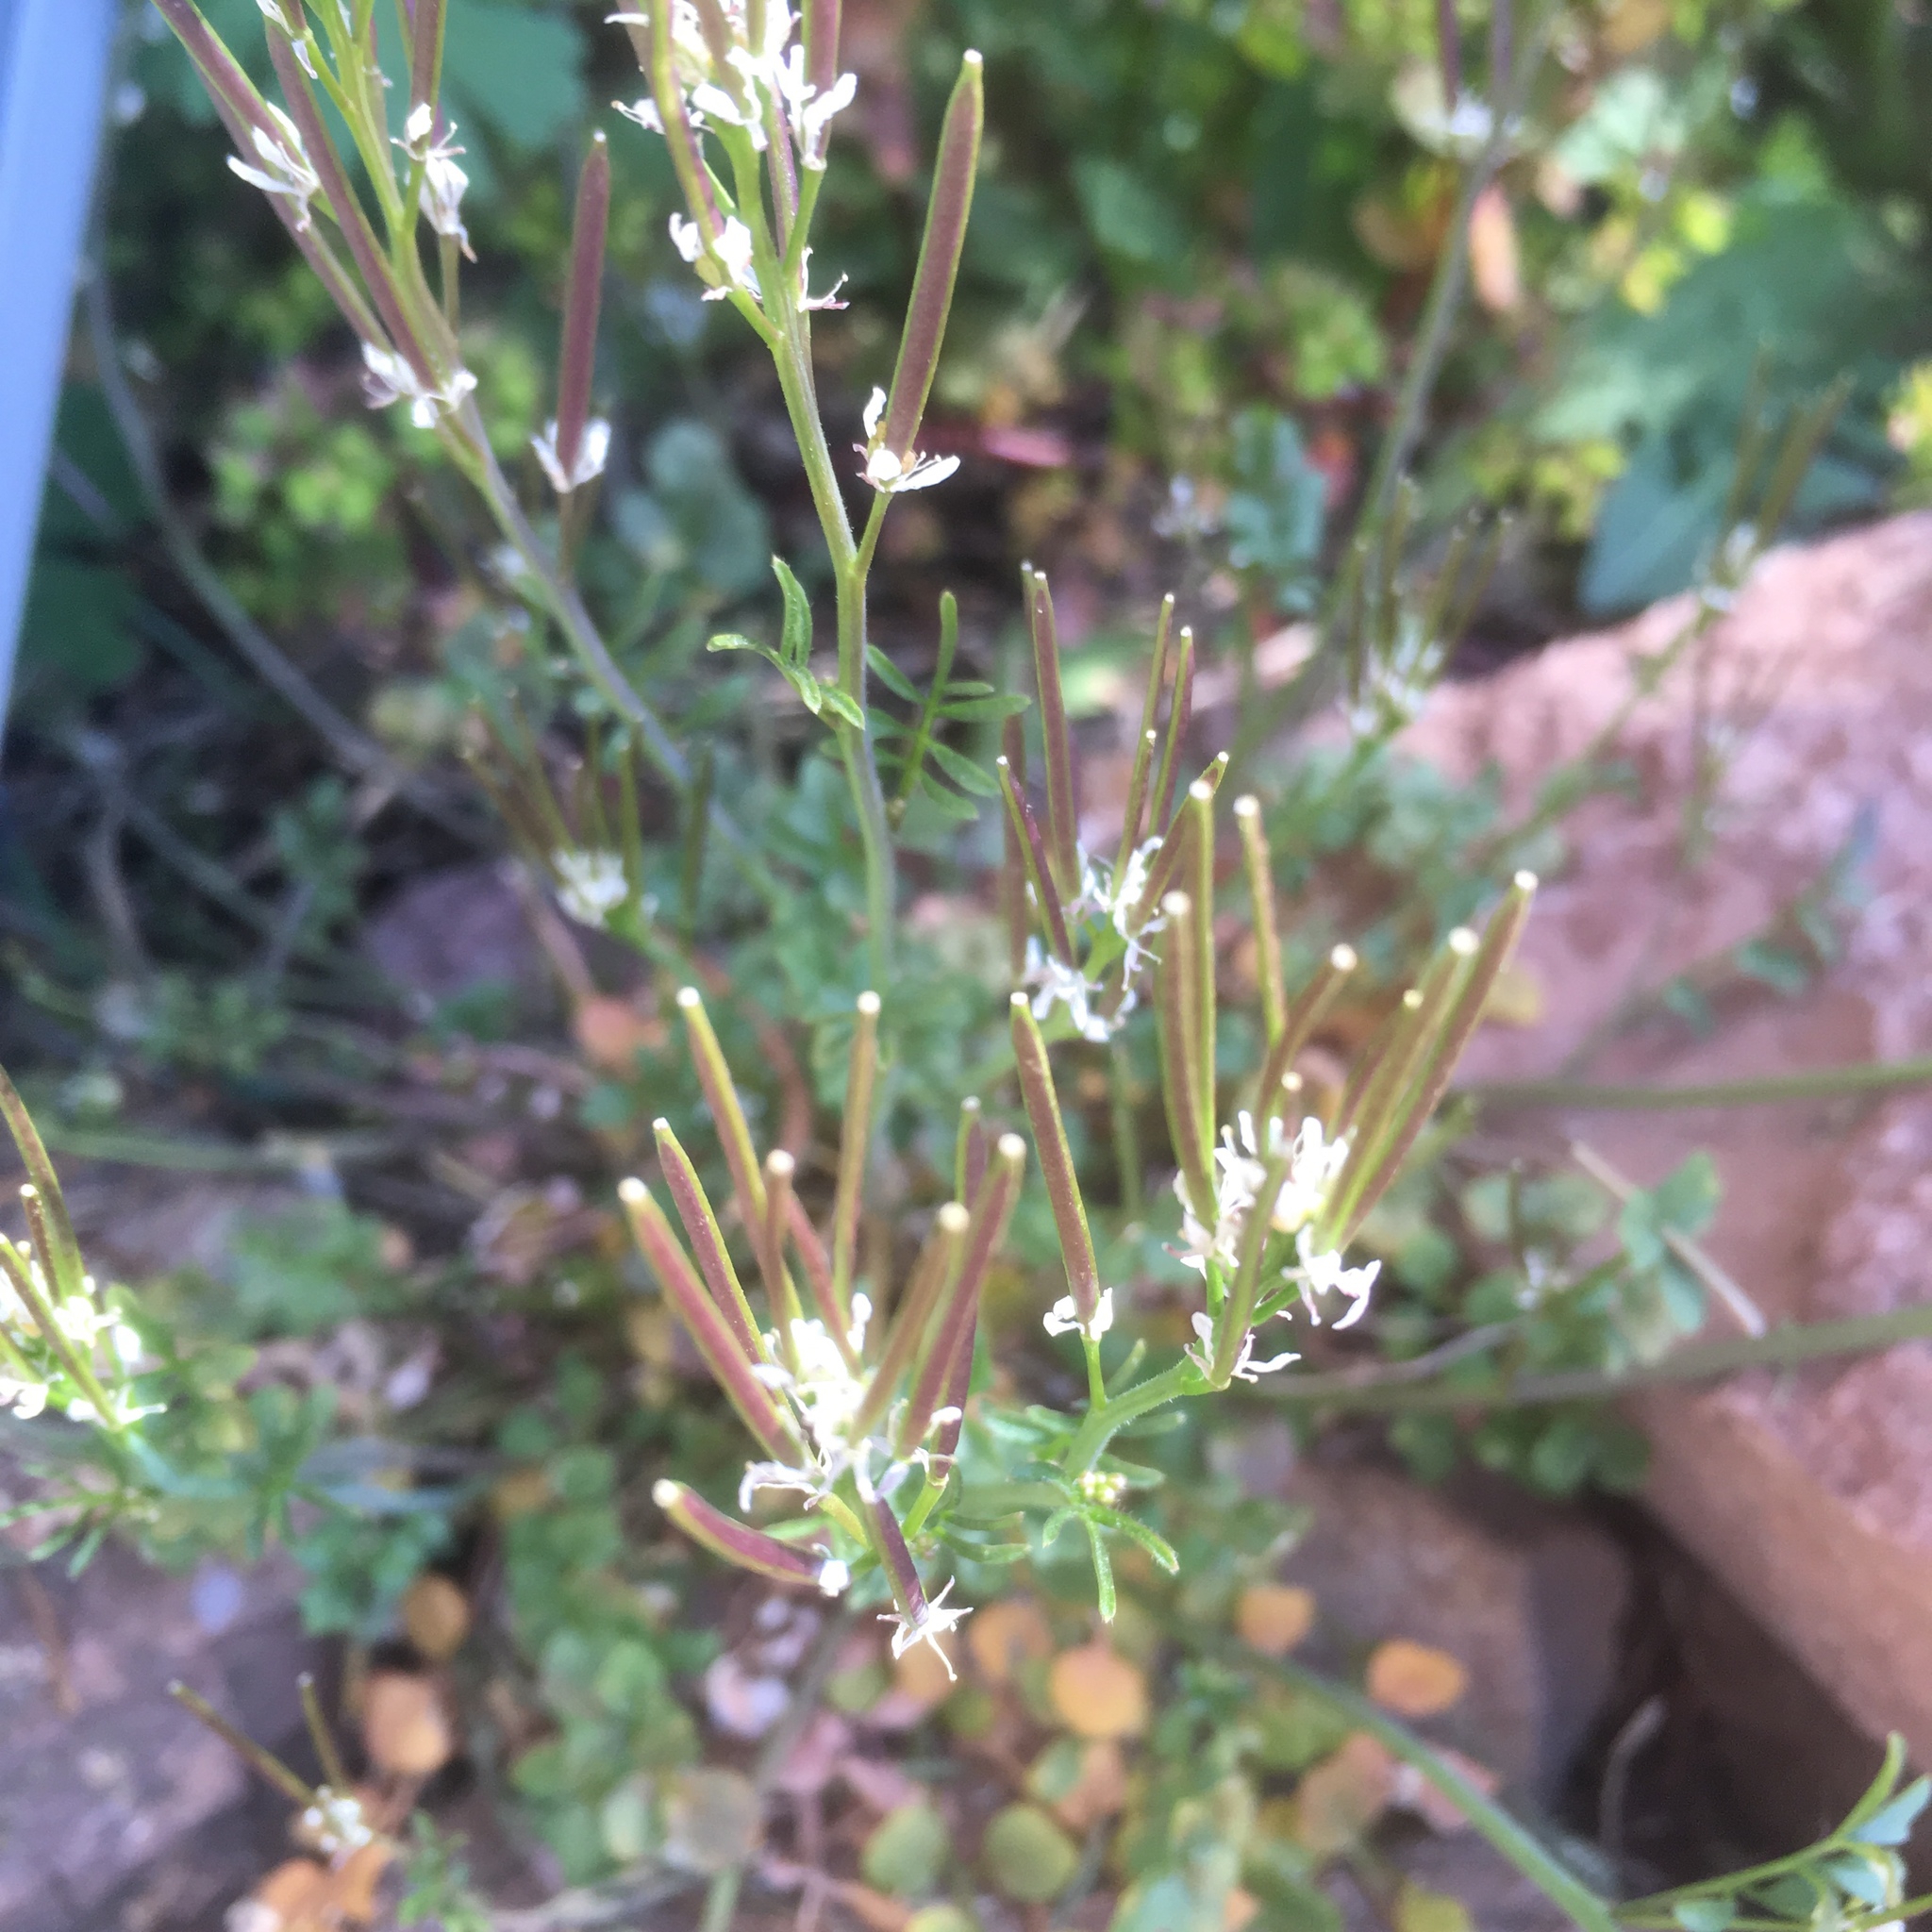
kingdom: Plantae
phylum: Tracheophyta
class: Magnoliopsida
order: Brassicales
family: Brassicaceae
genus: Cardamine
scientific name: Cardamine hirsuta
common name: Hairy bittercress
